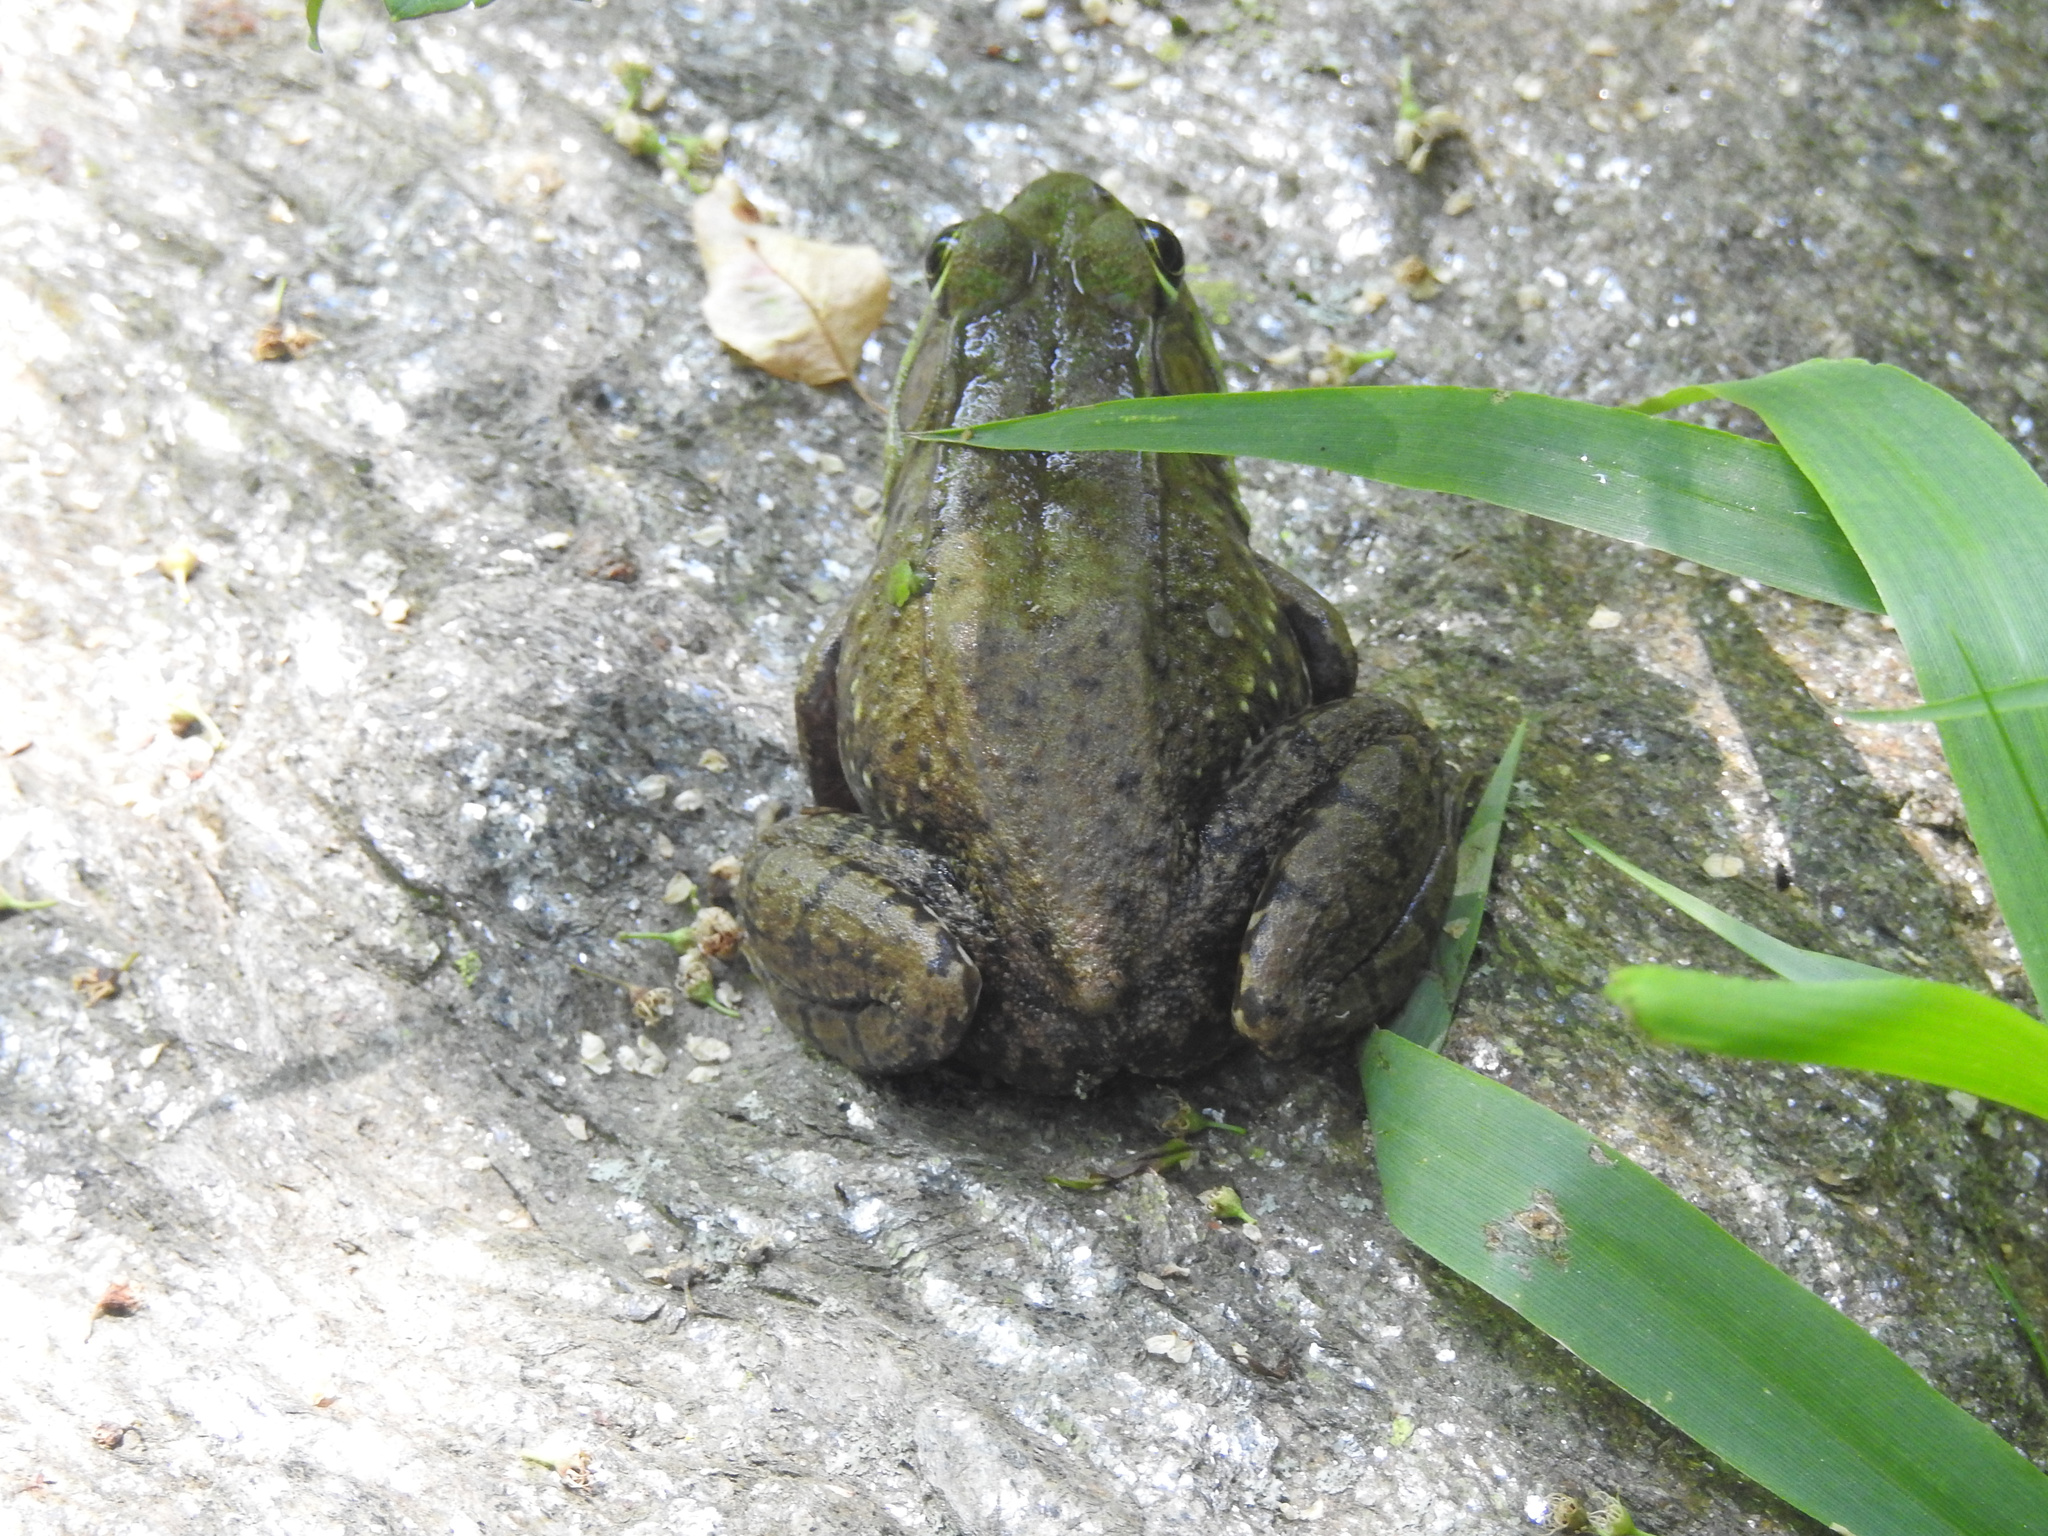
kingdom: Animalia
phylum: Chordata
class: Amphibia
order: Anura
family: Ranidae
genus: Lithobates
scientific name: Lithobates clamitans
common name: Green frog
